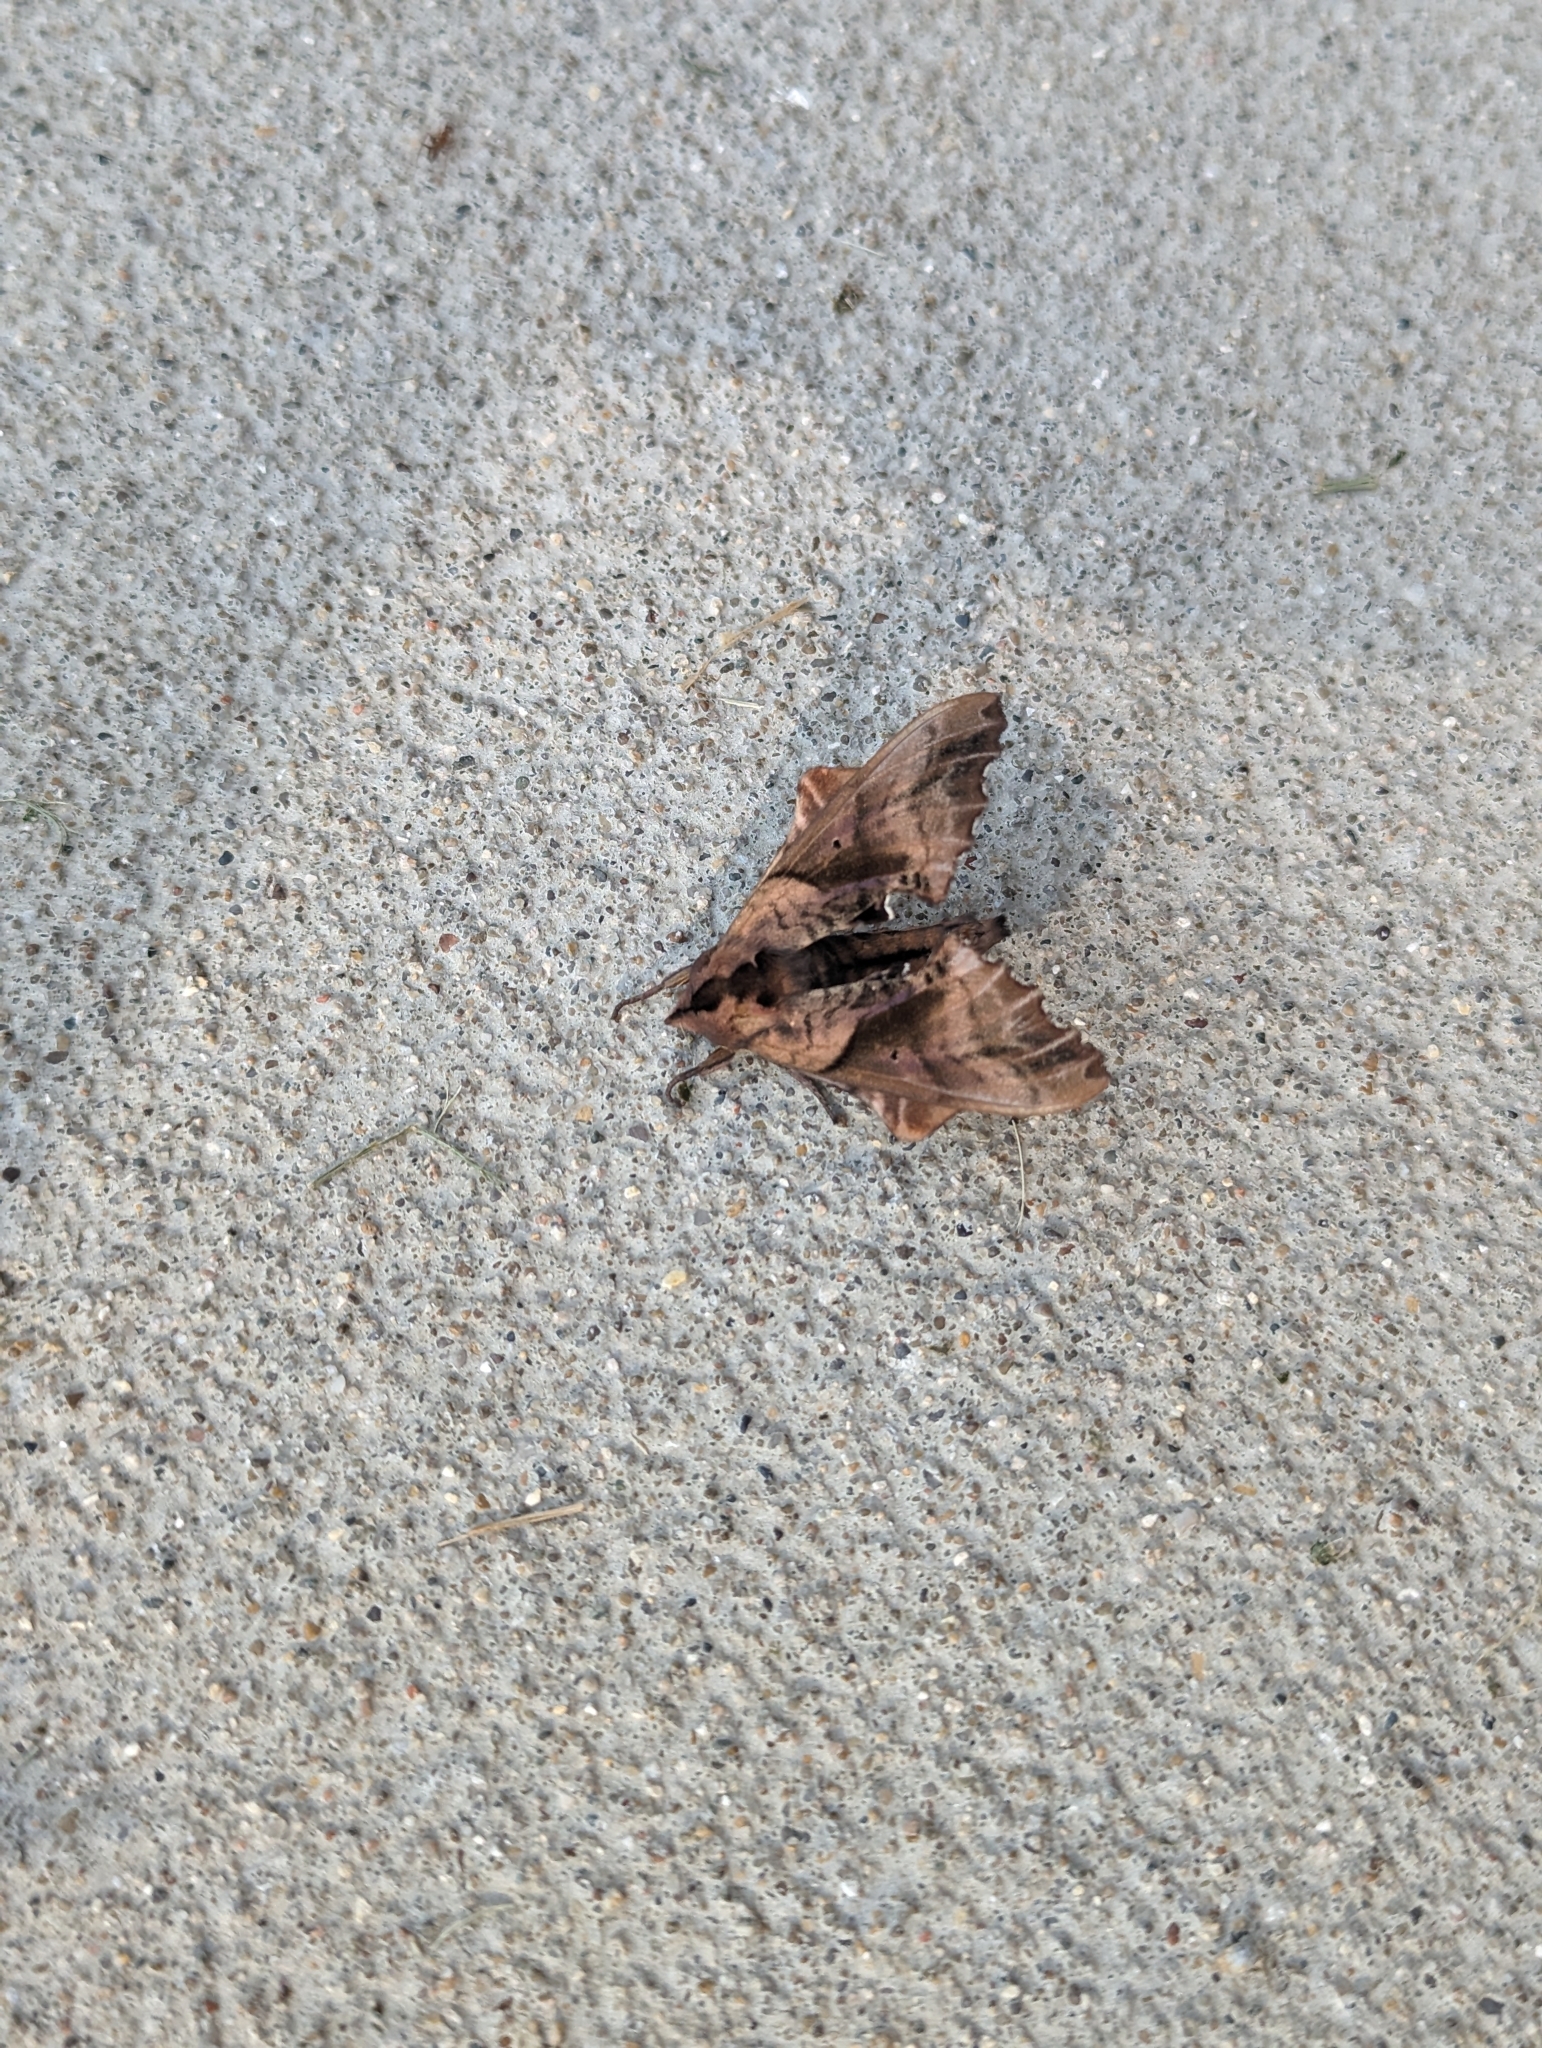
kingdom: Animalia
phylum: Arthropoda
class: Insecta
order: Lepidoptera
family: Sphingidae
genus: Paonias
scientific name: Paonias excaecata
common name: Blind-eyed sphinx
